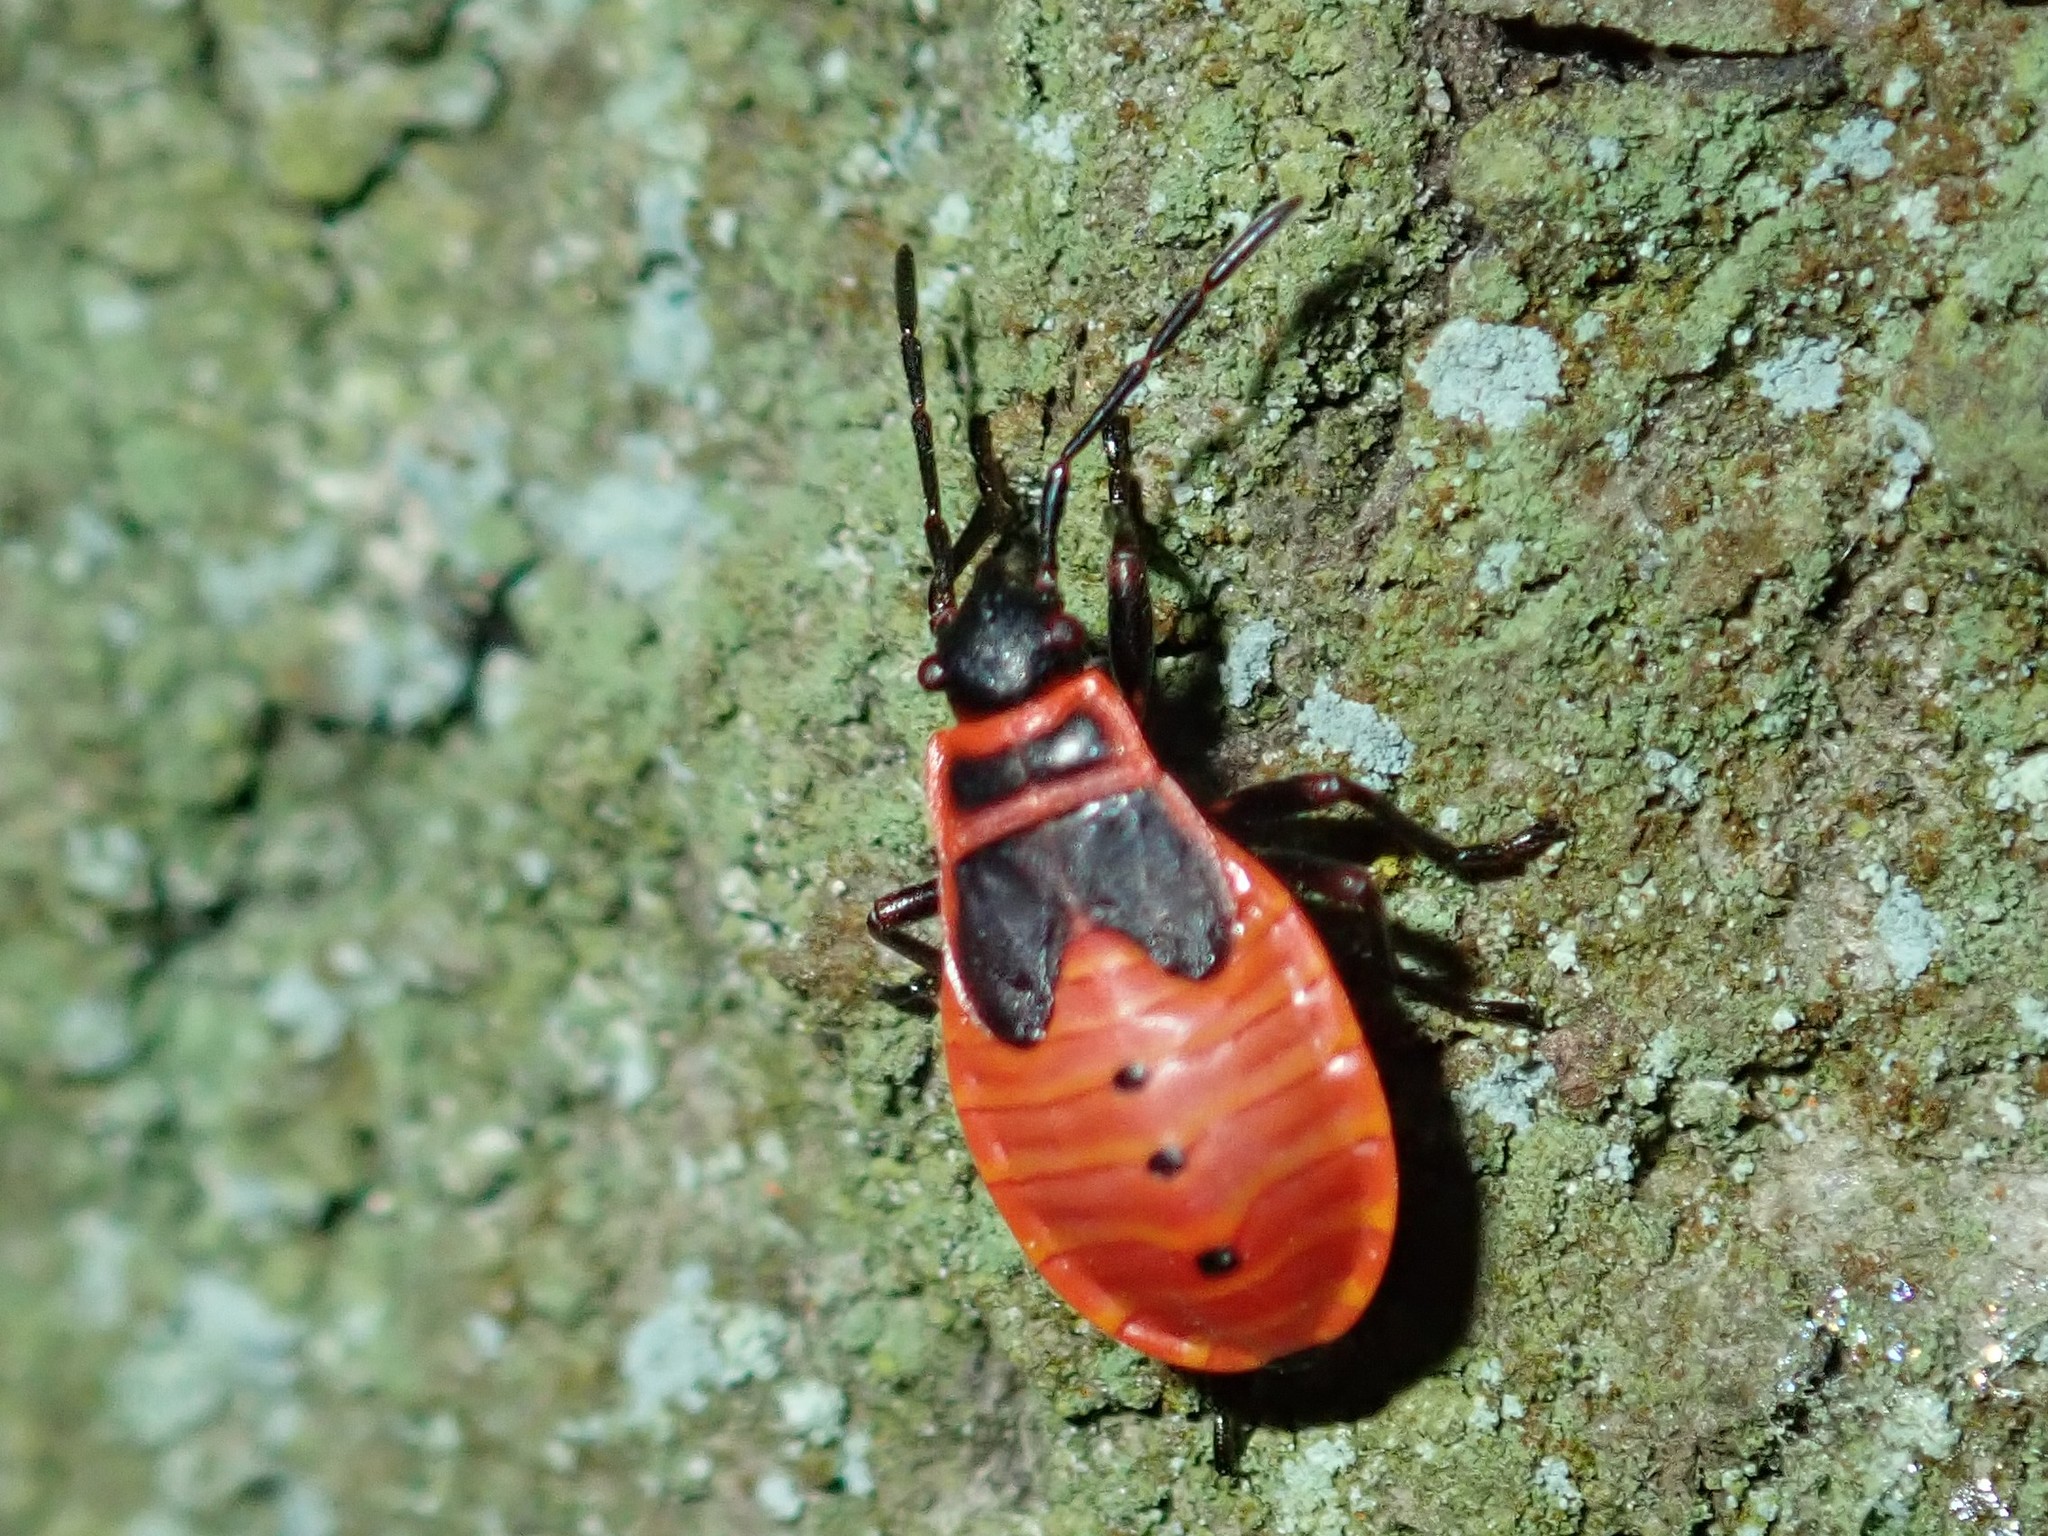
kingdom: Animalia
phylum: Arthropoda
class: Insecta
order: Hemiptera
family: Pyrrhocoridae
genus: Pyrrhocoris
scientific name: Pyrrhocoris apterus
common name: Firebug
